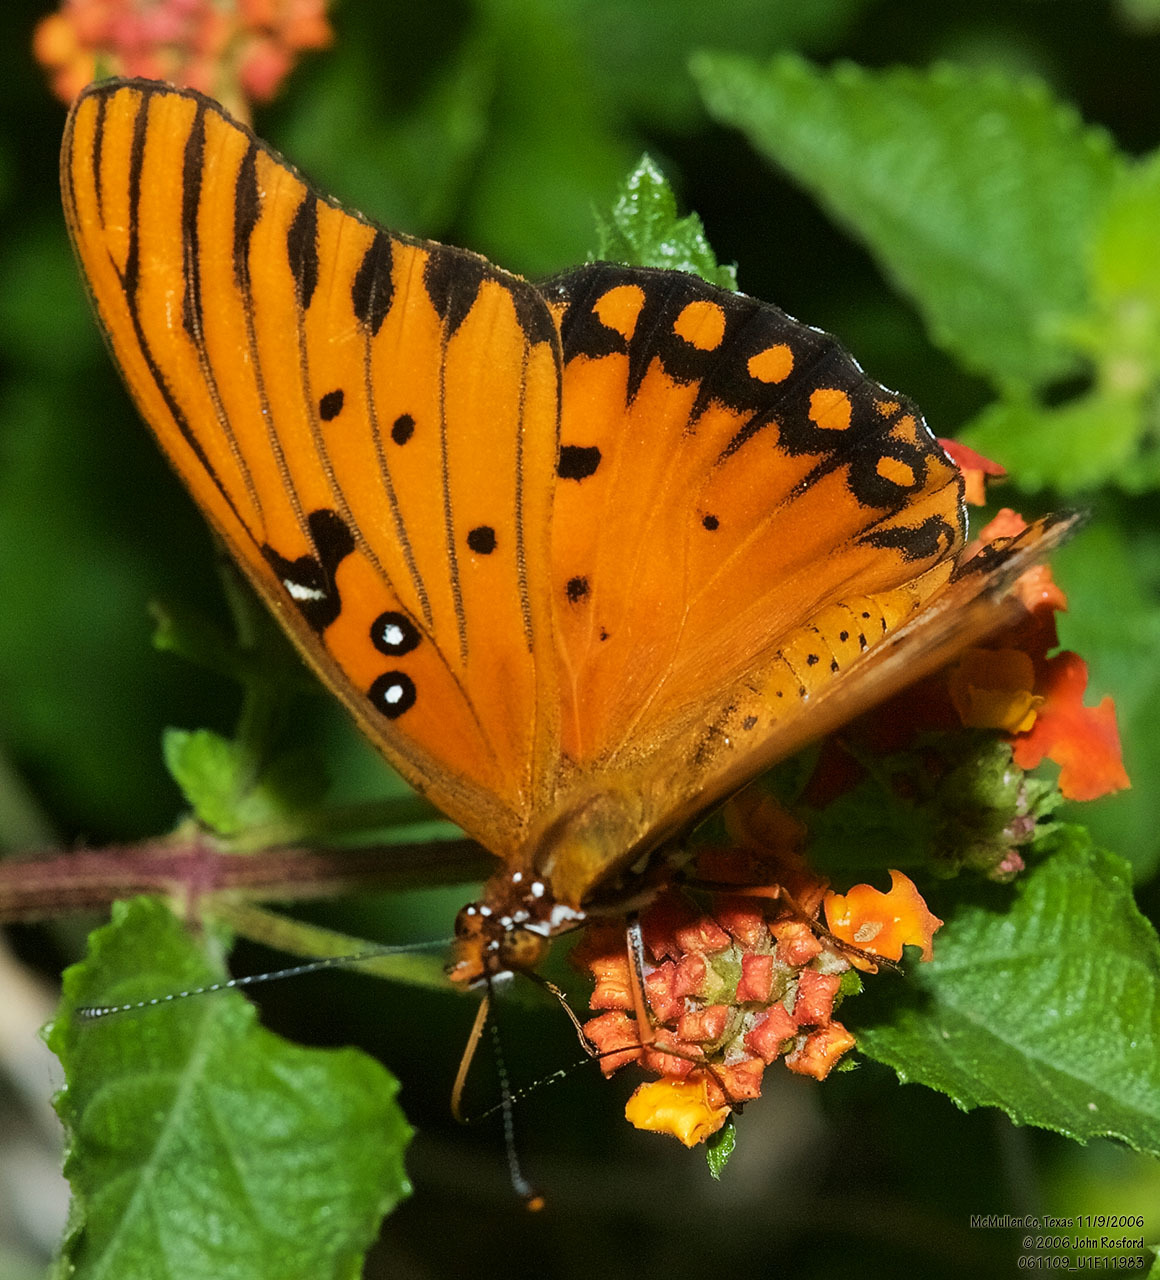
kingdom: Animalia
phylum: Arthropoda
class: Insecta
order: Lepidoptera
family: Nymphalidae
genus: Dione
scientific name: Dione vanillae
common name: Gulf fritillary
